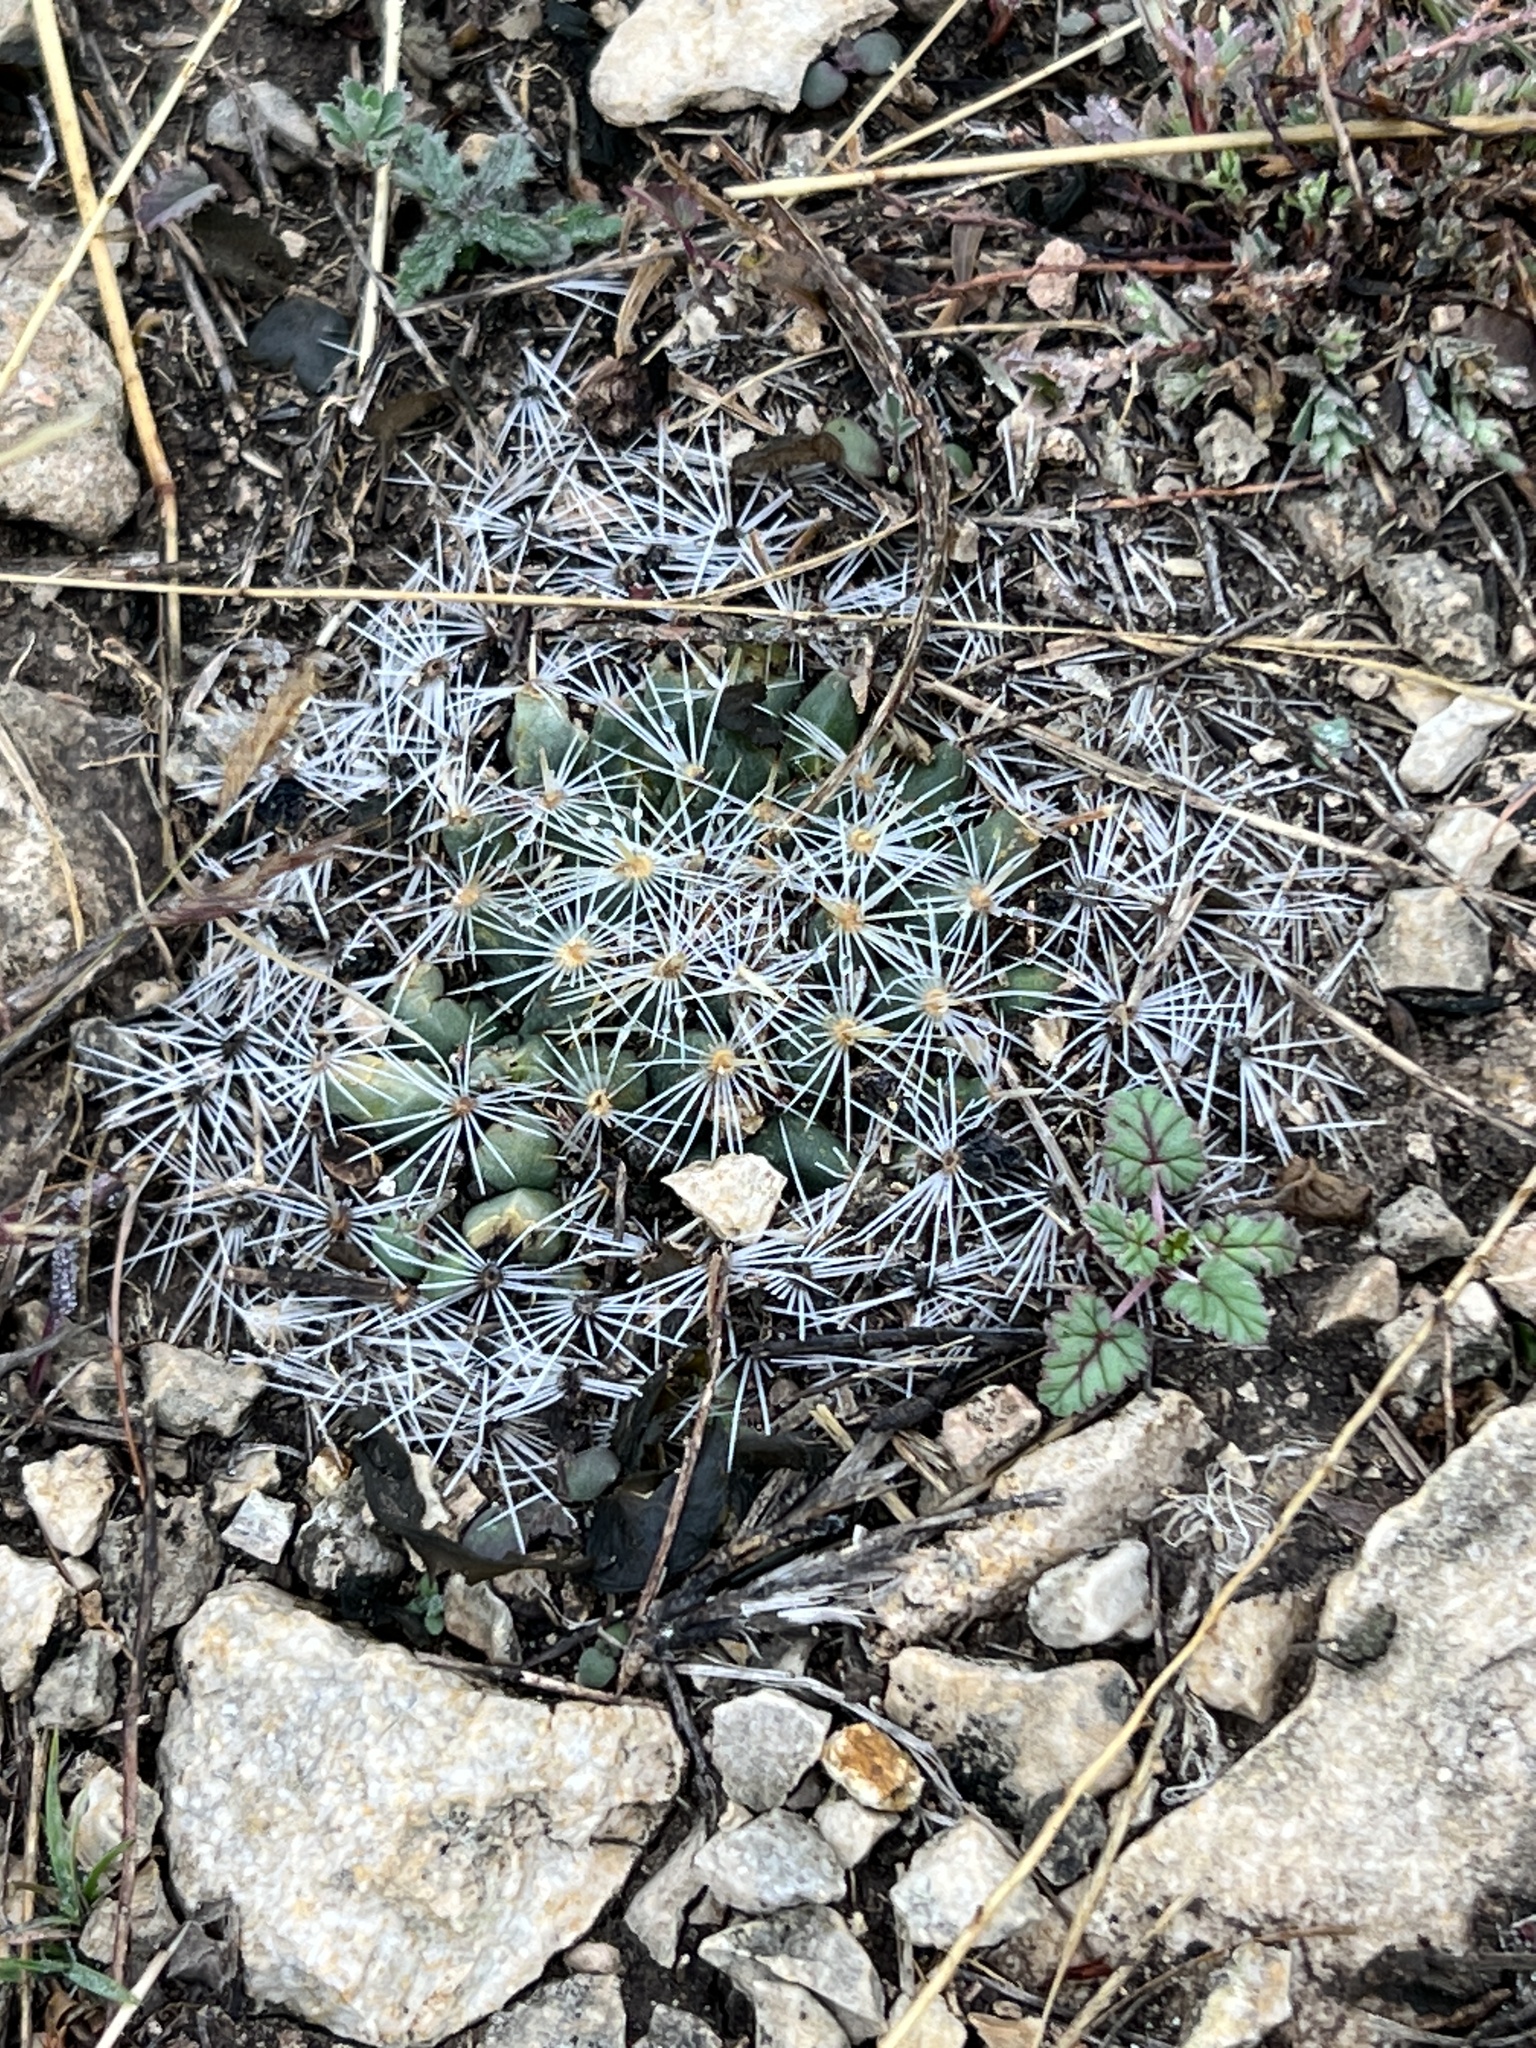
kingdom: Plantae
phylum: Tracheophyta
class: Magnoliopsida
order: Caryophyllales
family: Cactaceae
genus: Mammillaria
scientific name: Mammillaria heyderi
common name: Little nipple cactus
